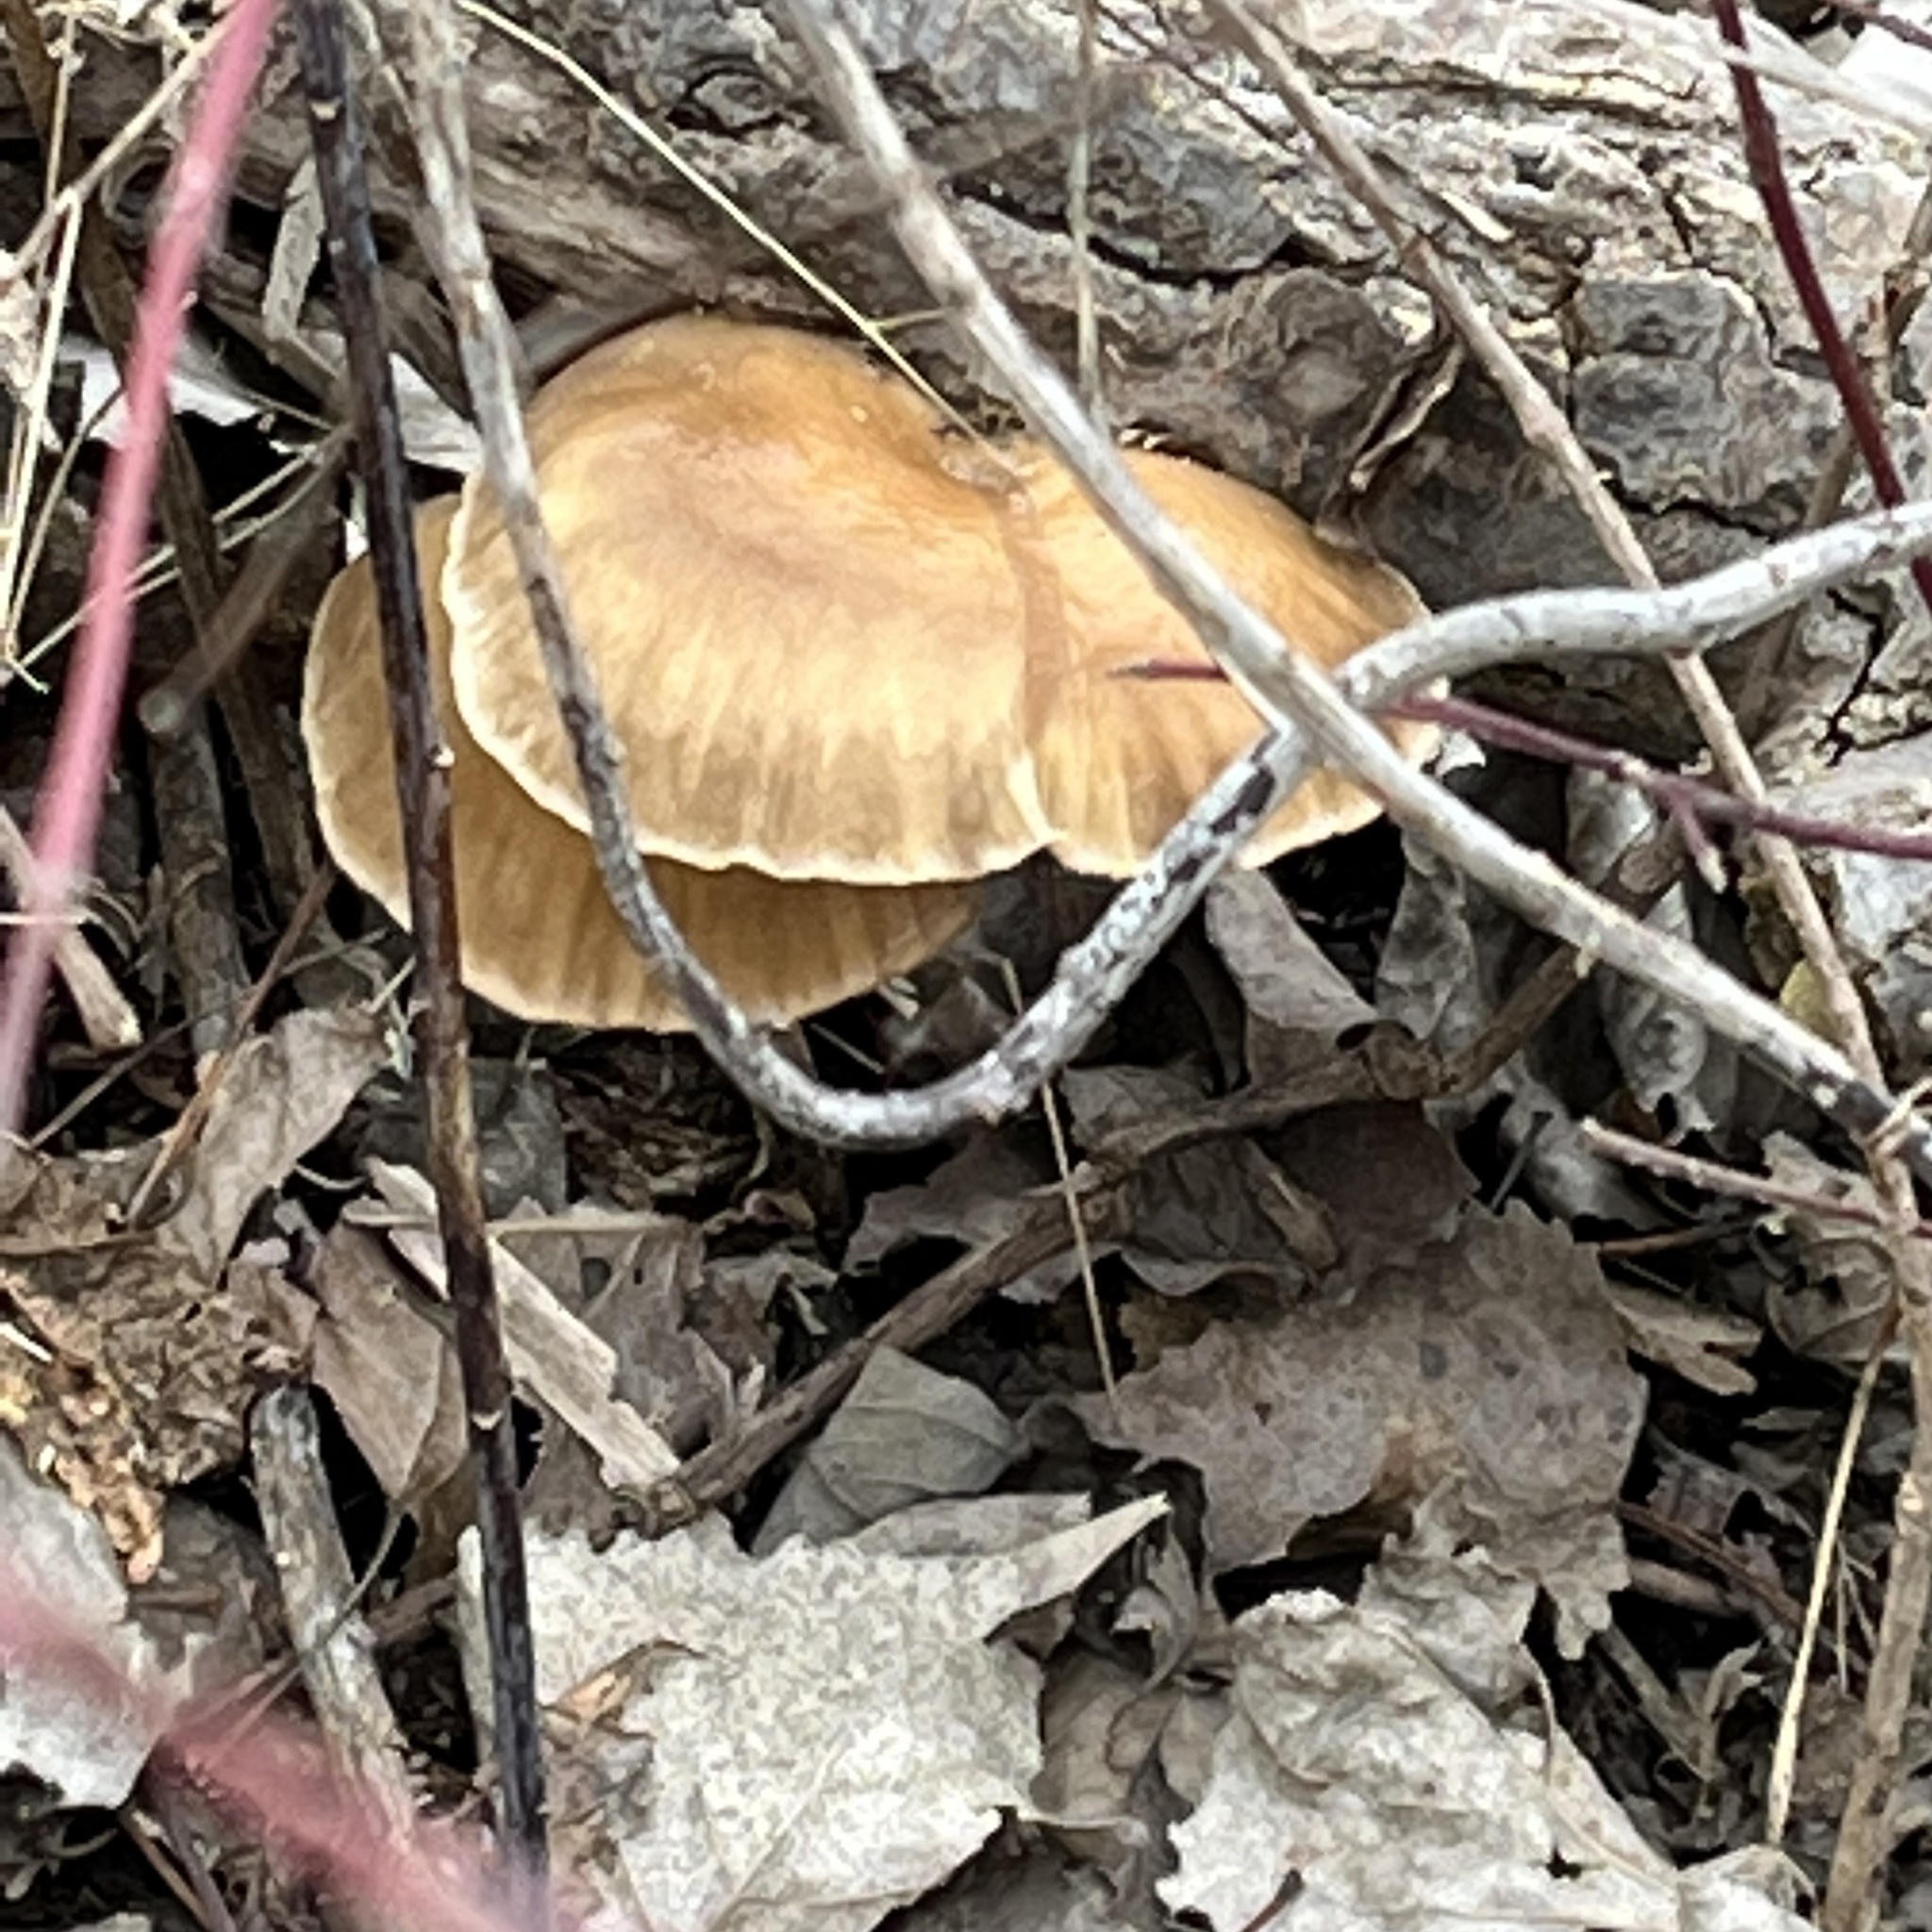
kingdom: Fungi
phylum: Basidiomycota
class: Agaricomycetes
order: Agaricales
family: Pleurotaceae
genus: Pleurotus
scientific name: Pleurotus ostreatus
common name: Oyster mushroom
